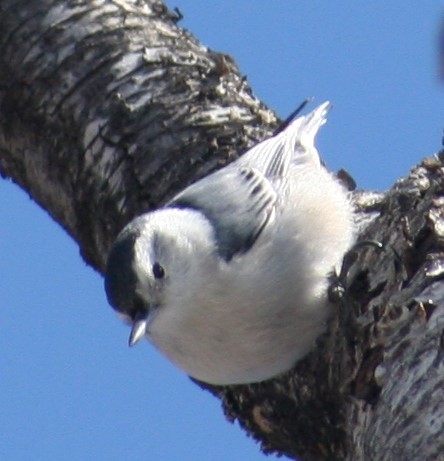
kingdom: Animalia
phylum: Chordata
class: Aves
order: Passeriformes
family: Sittidae
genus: Sitta
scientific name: Sitta carolinensis
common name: White-breasted nuthatch
